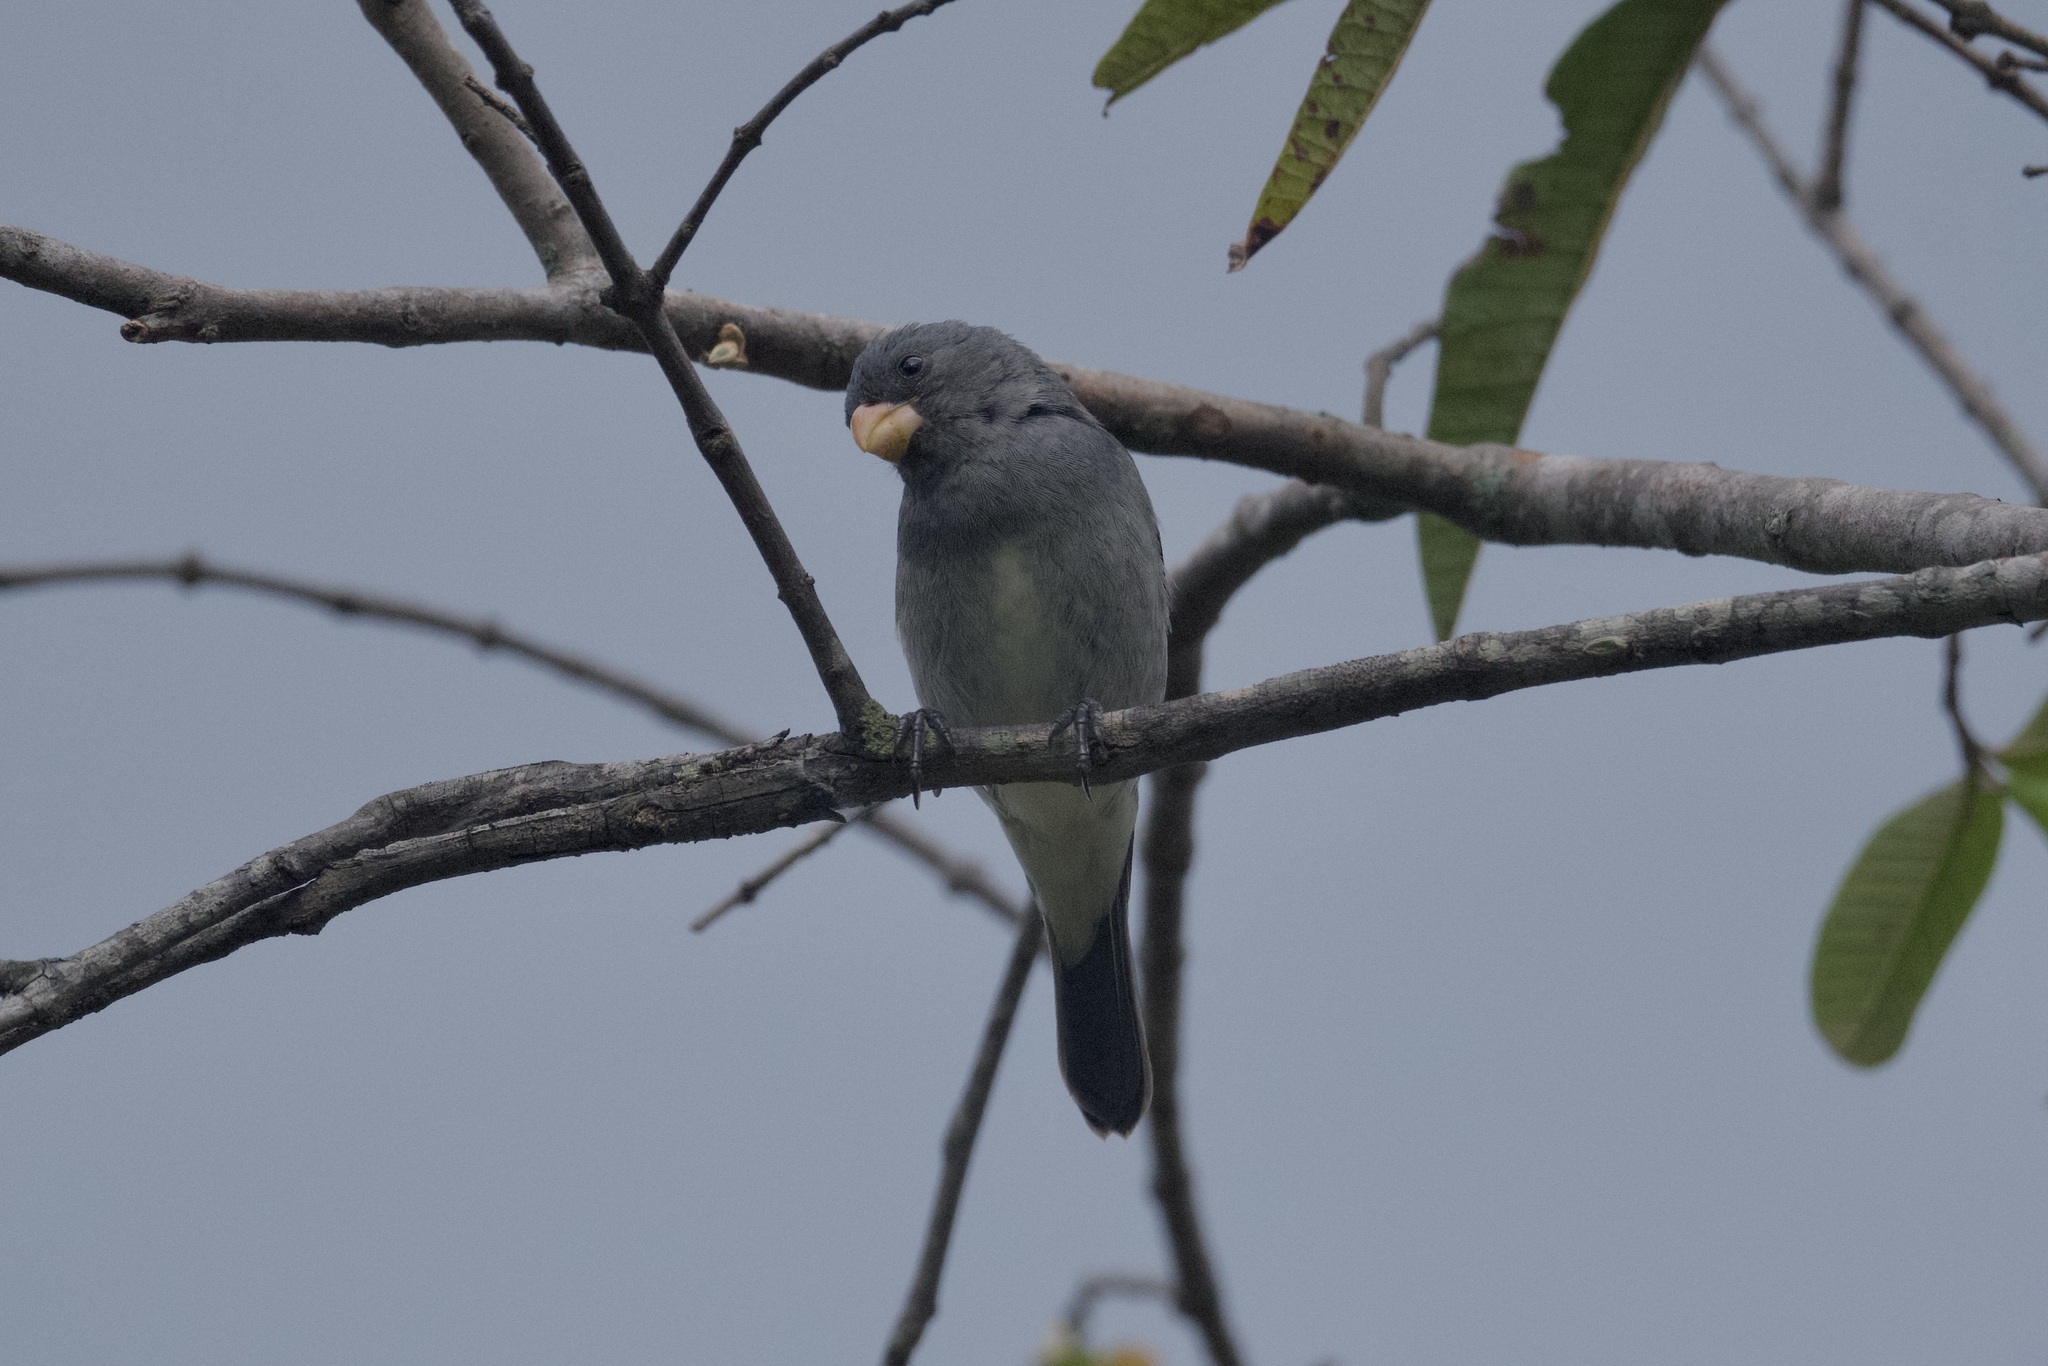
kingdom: Animalia
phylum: Chordata
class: Aves
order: Passeriformes
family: Thraupidae
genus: Sporophila
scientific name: Sporophila intermedia
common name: Grey seedeater
